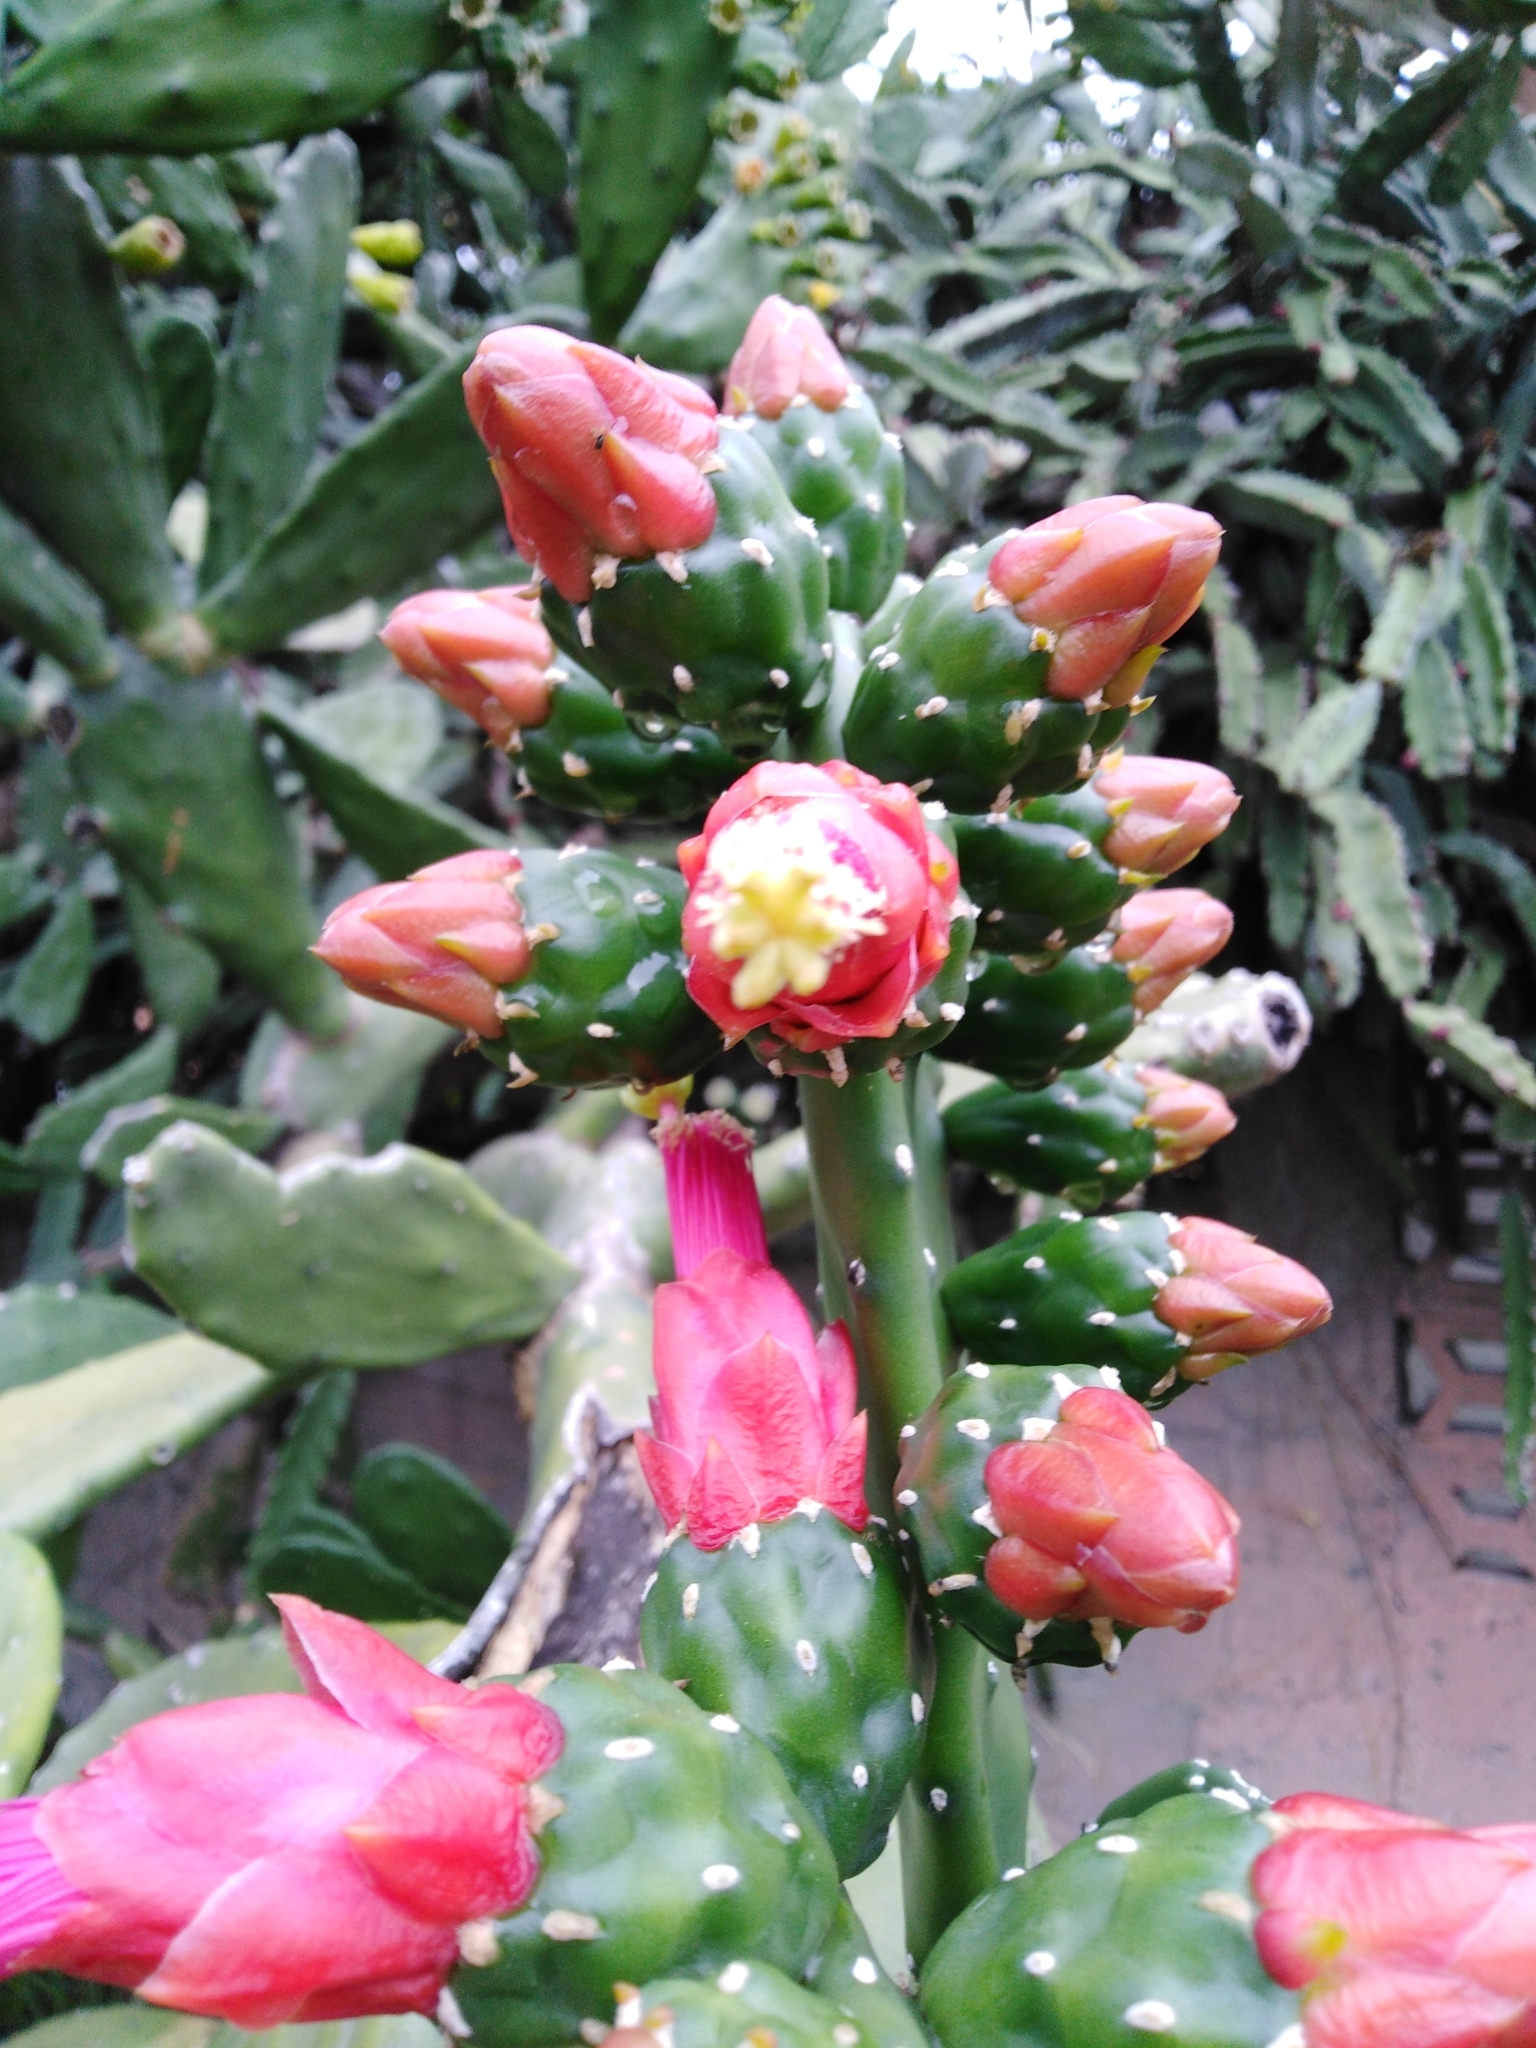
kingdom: Plantae
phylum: Tracheophyta
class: Magnoliopsida
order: Caryophyllales
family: Cactaceae
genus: Opuntia
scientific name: Opuntia cochenillifera
